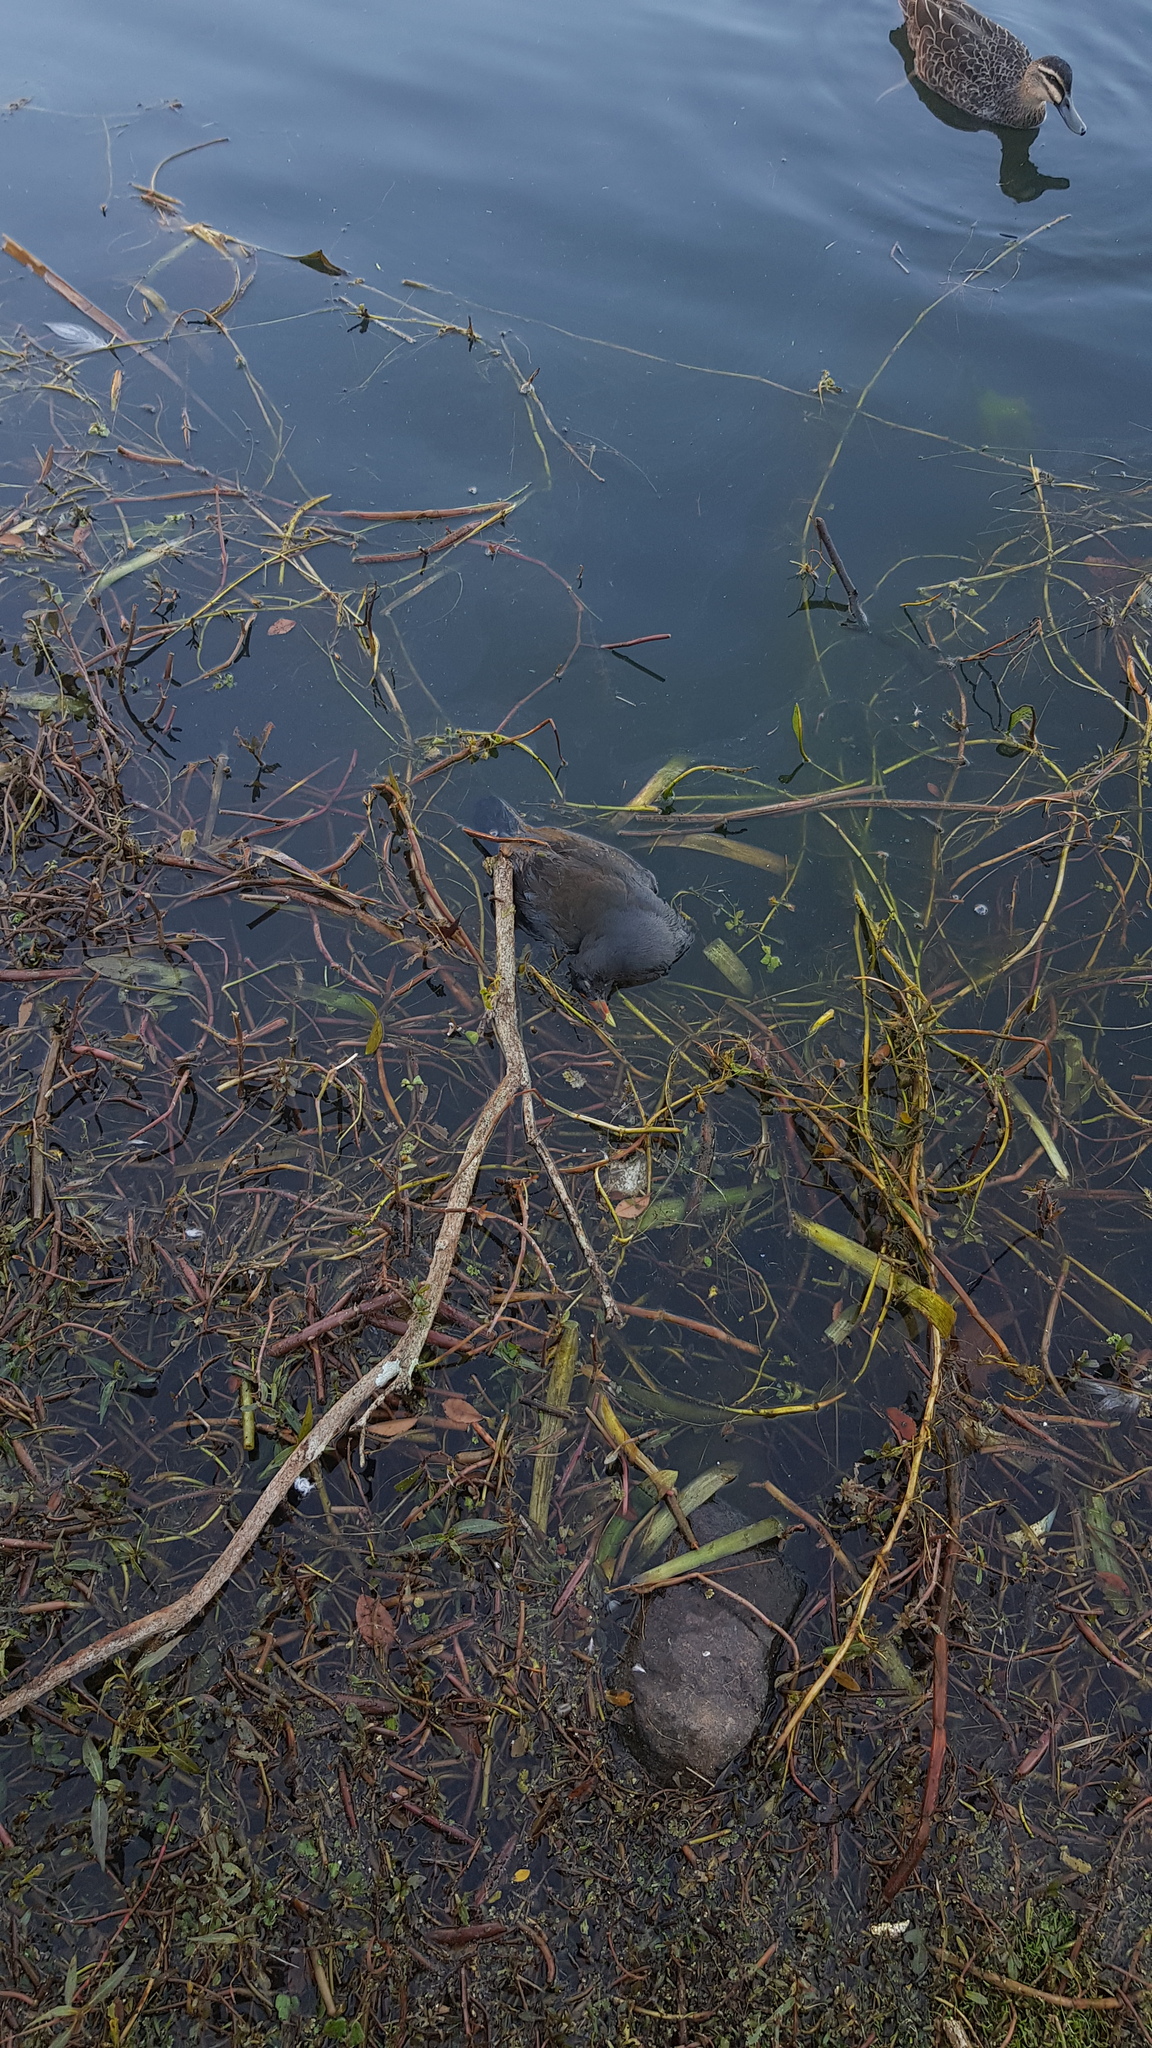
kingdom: Animalia
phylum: Chordata
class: Aves
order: Gruiformes
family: Rallidae
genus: Gallinula
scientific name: Gallinula tenebrosa
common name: Dusky moorhen
